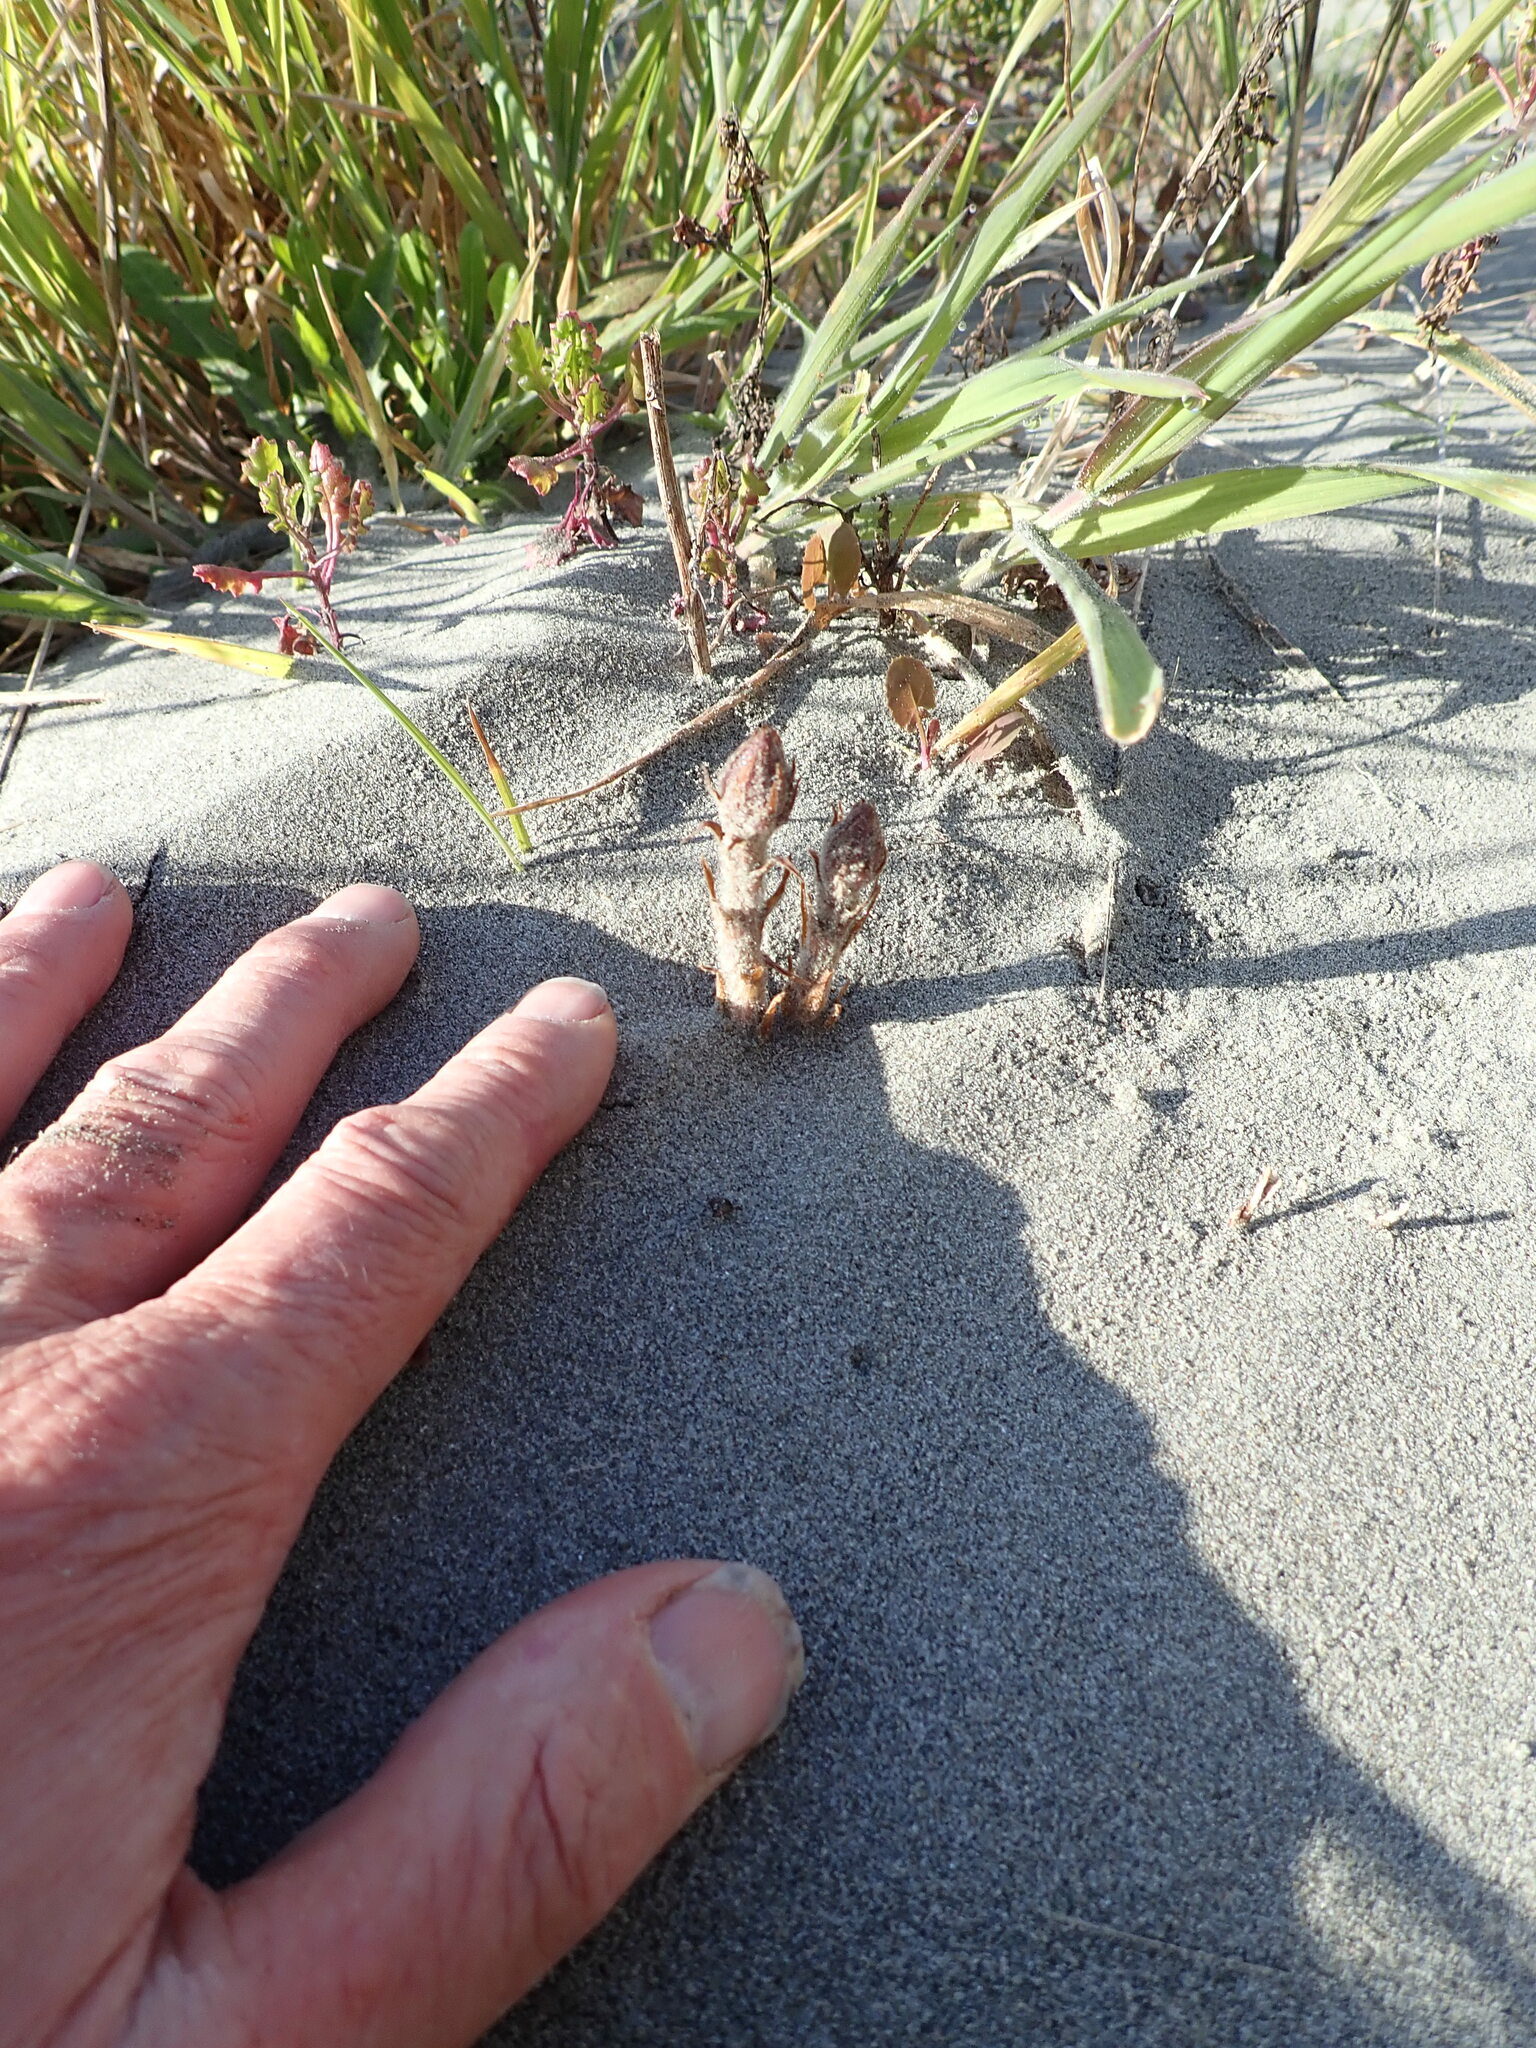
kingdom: Plantae
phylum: Tracheophyta
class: Magnoliopsida
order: Lamiales
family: Orobanchaceae
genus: Orobanche
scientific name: Orobanche minor
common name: Common broomrape
